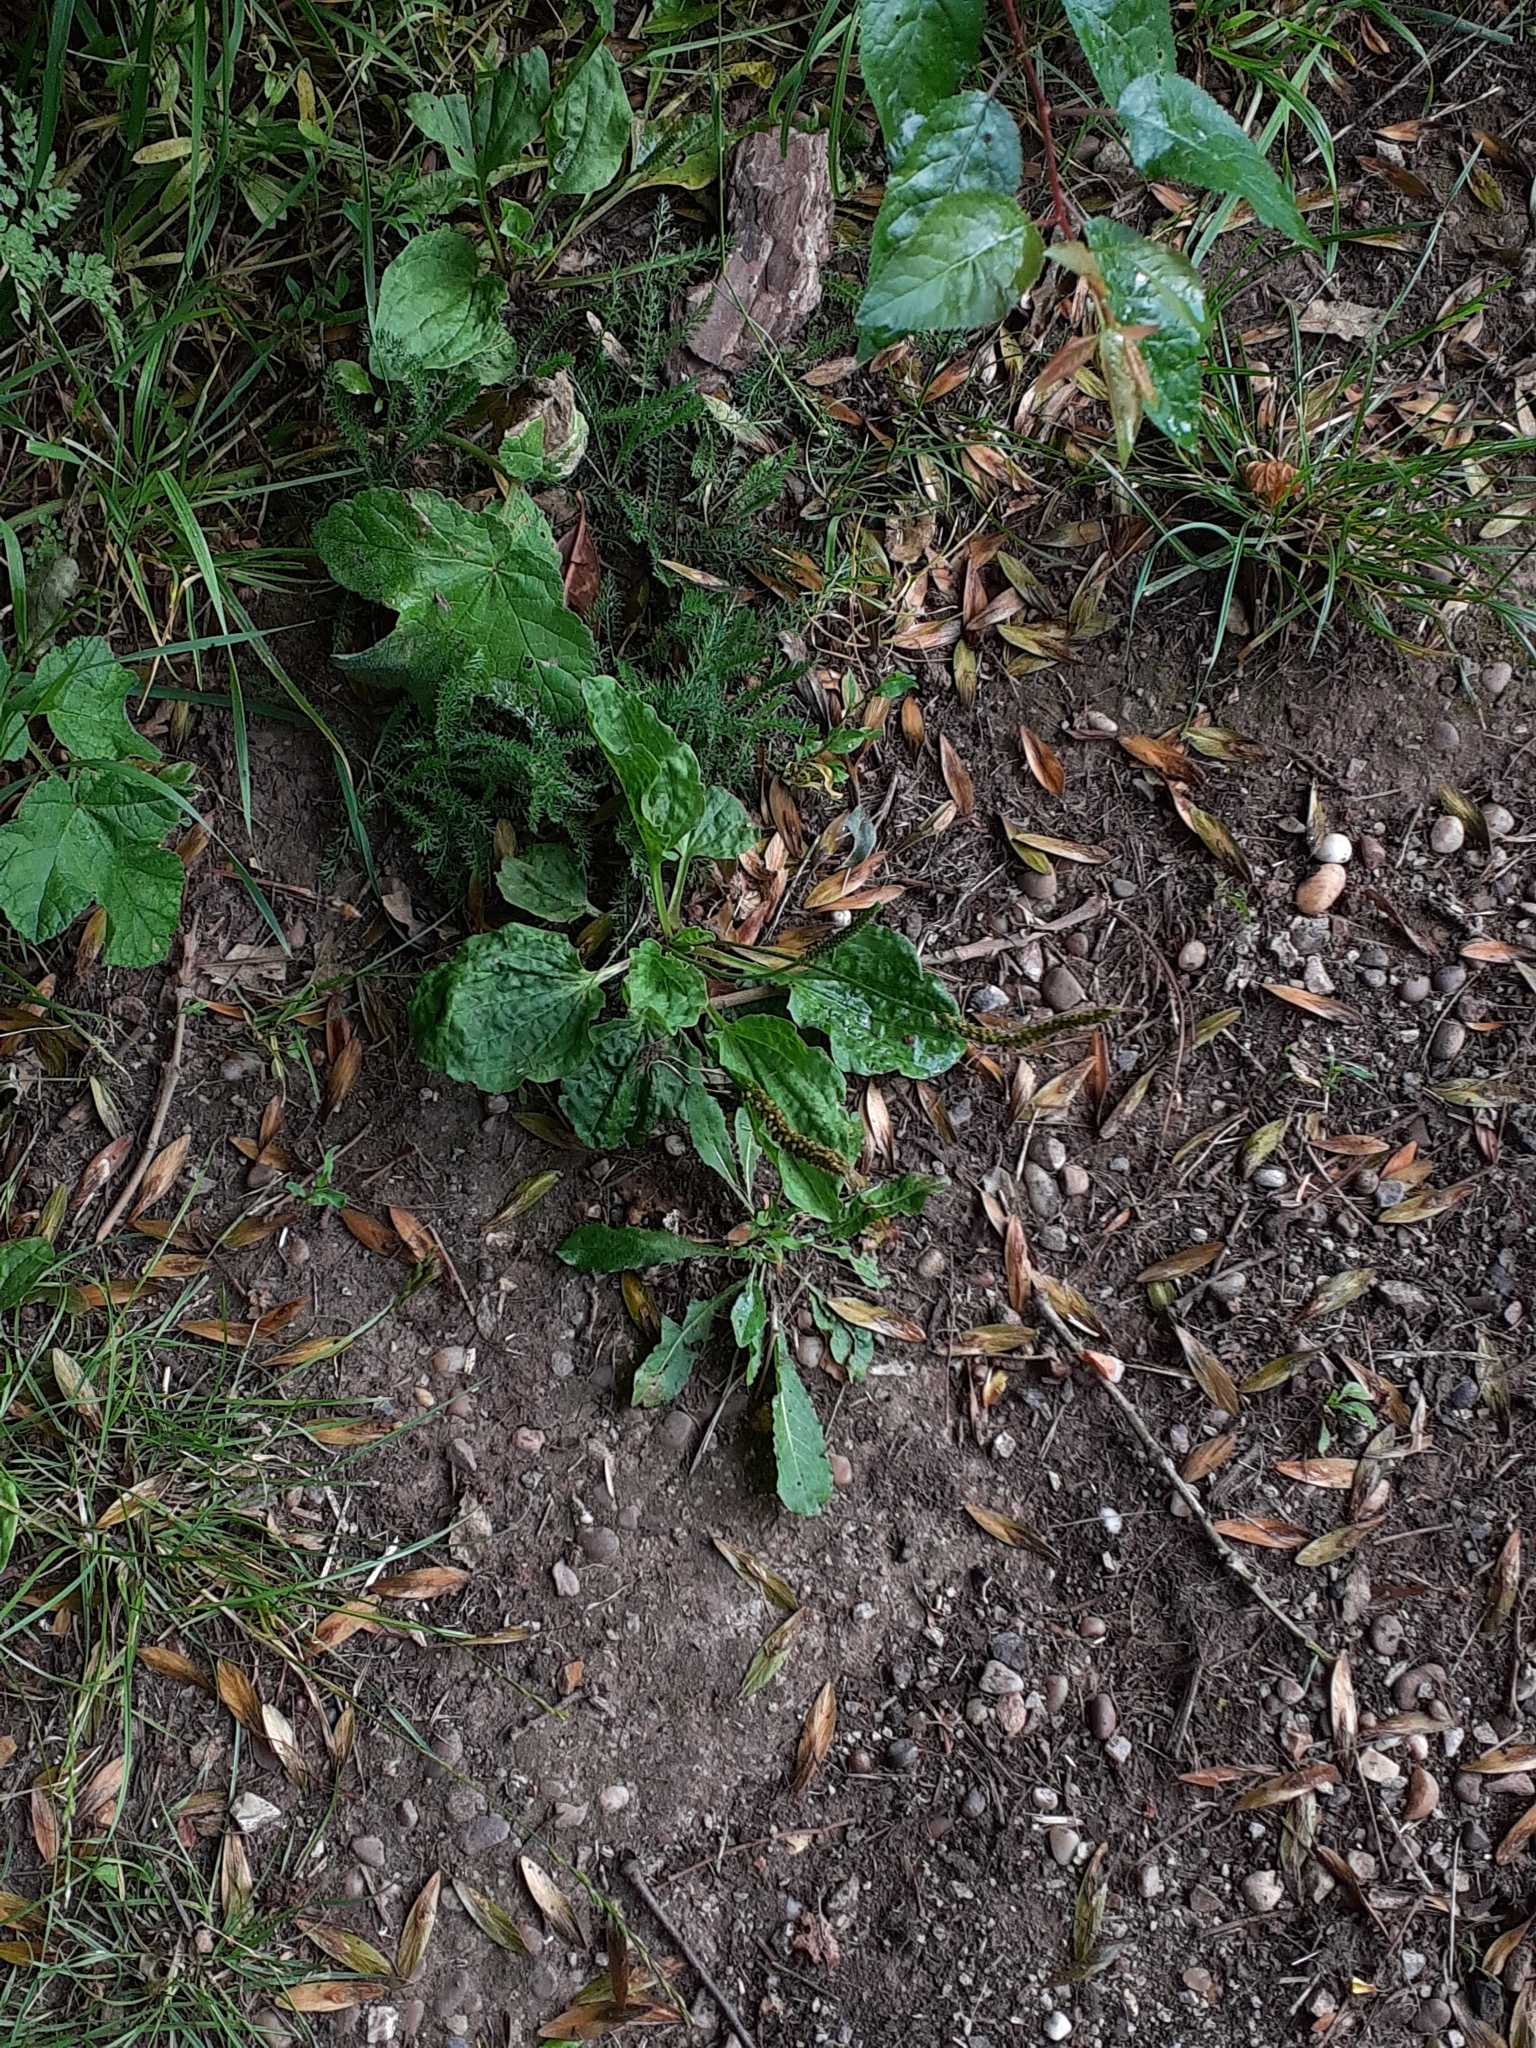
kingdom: Plantae
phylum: Tracheophyta
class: Magnoliopsida
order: Lamiales
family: Plantaginaceae
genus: Plantago
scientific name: Plantago major
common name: Common plantain
